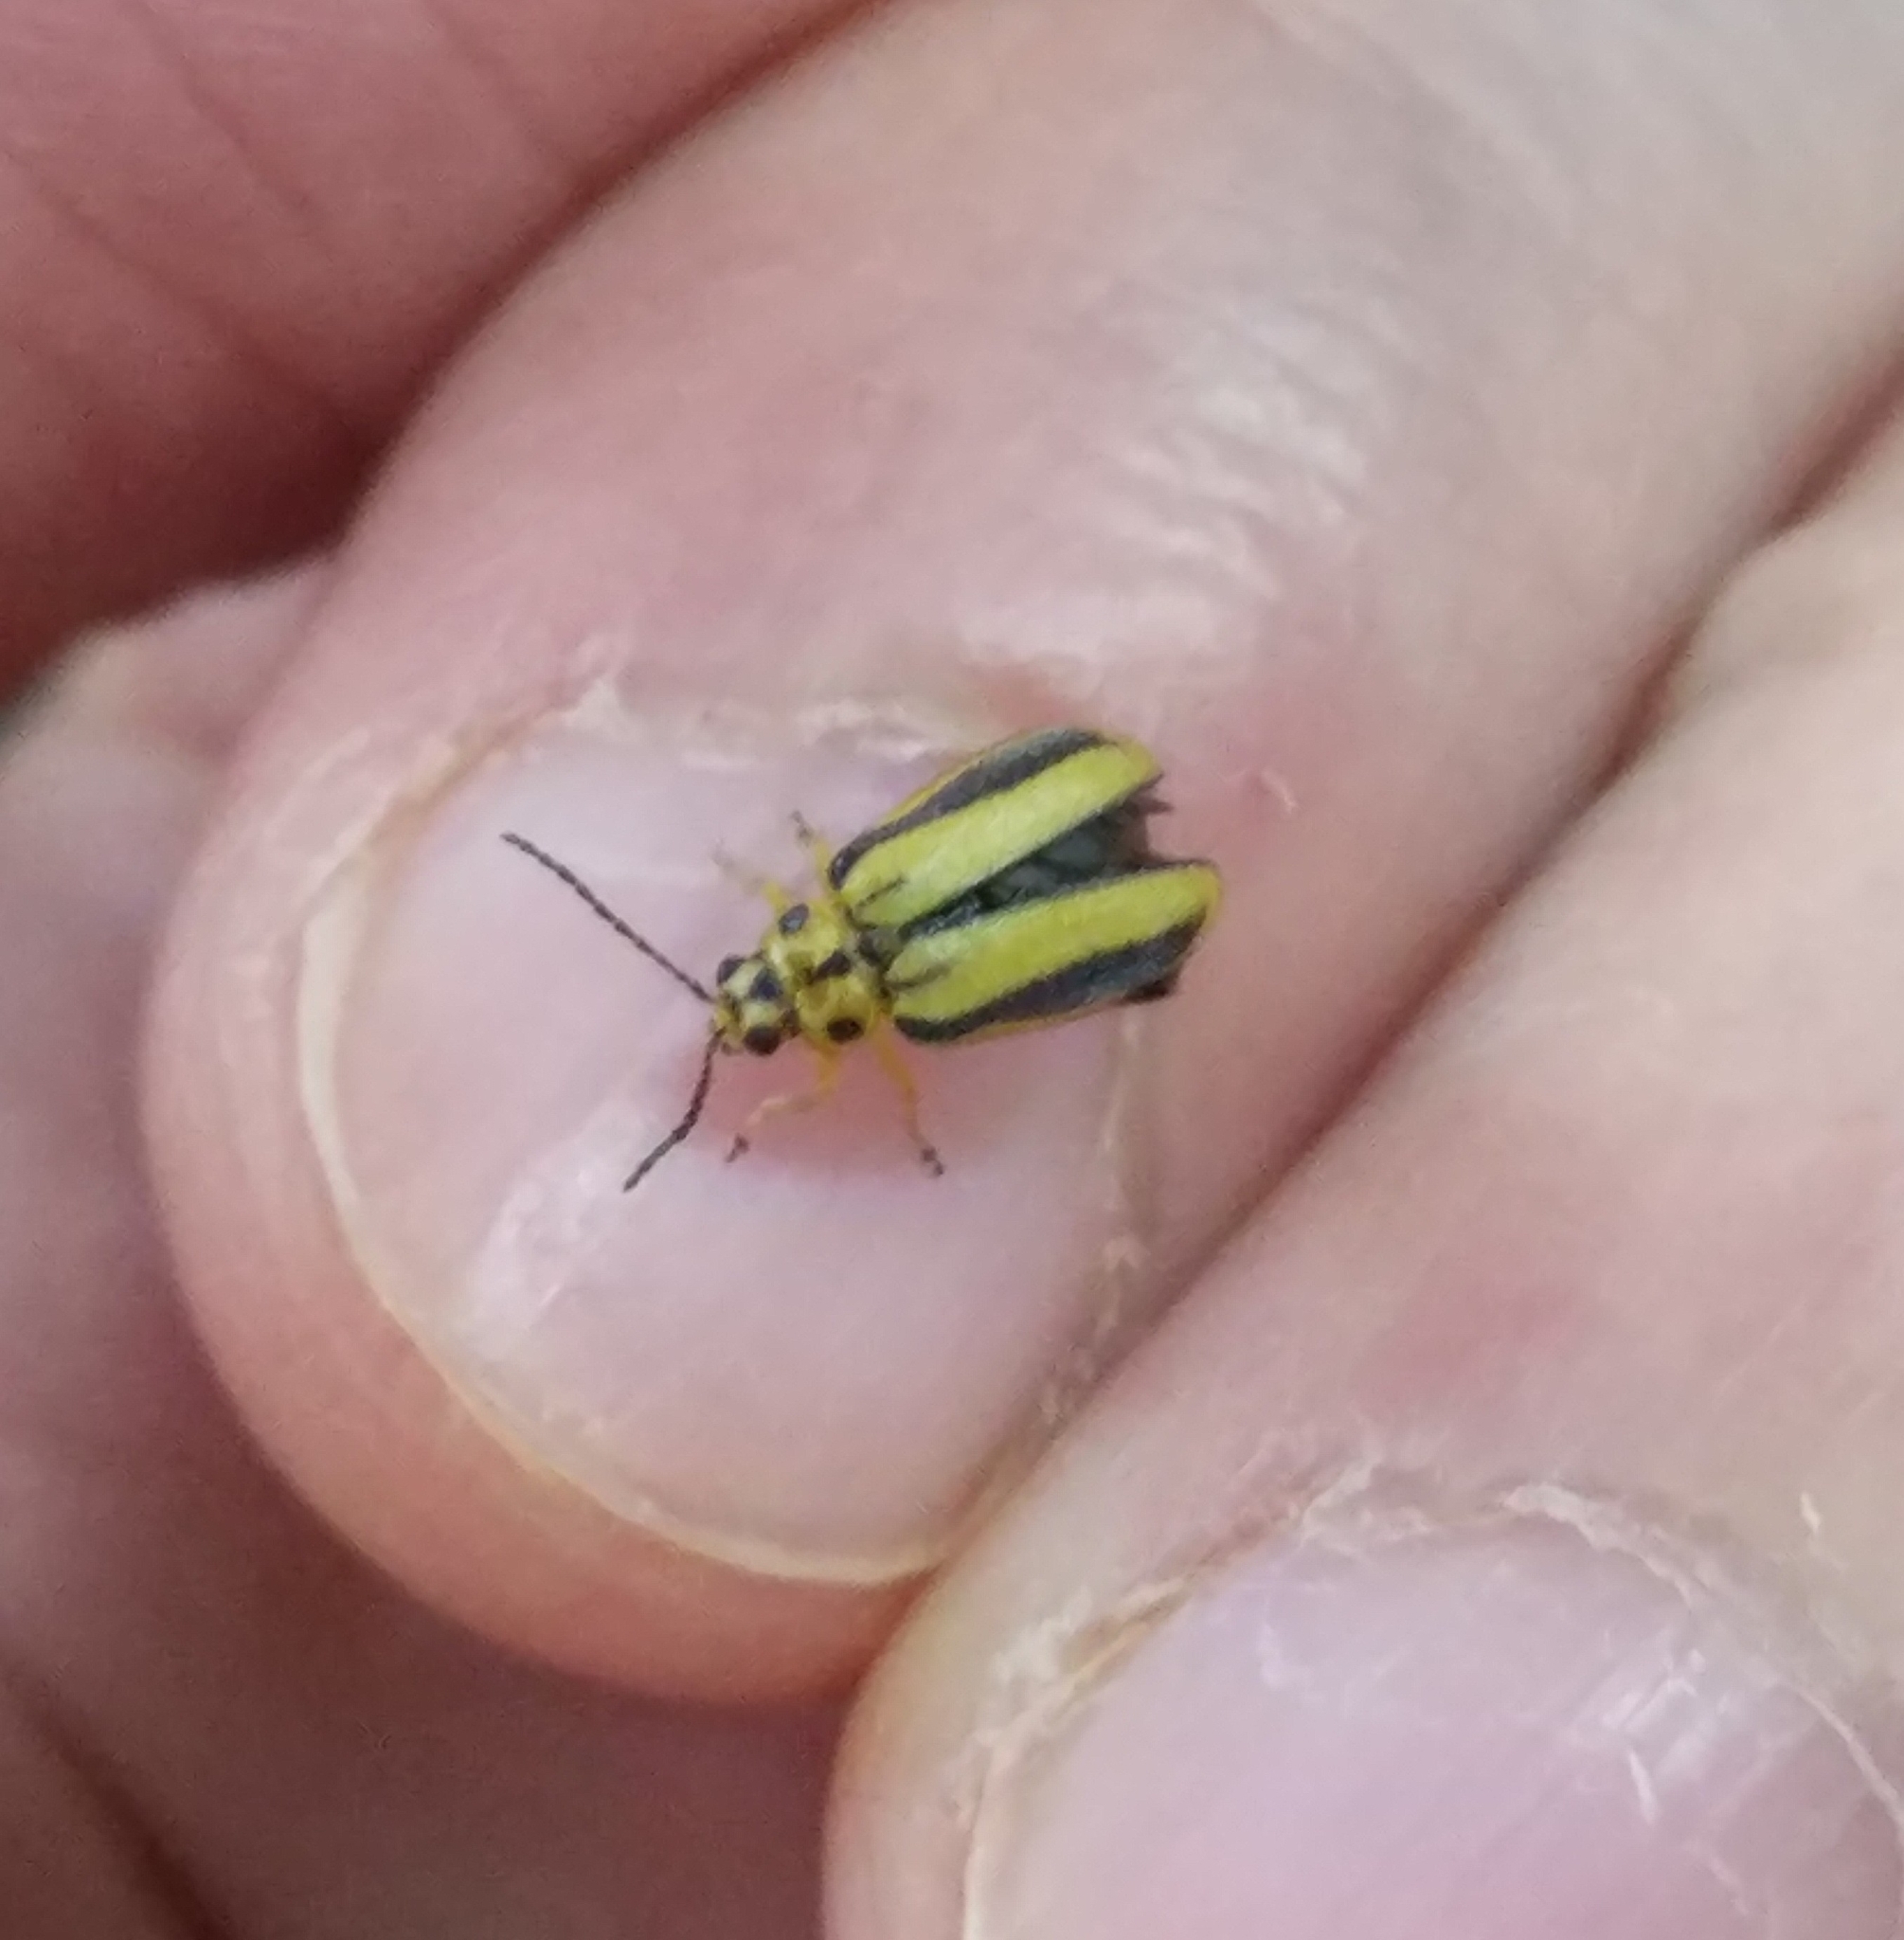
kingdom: Animalia
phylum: Arthropoda
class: Insecta
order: Coleoptera
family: Chrysomelidae
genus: Xanthogaleruca
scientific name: Xanthogaleruca luteola
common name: Elm leaf beetle
